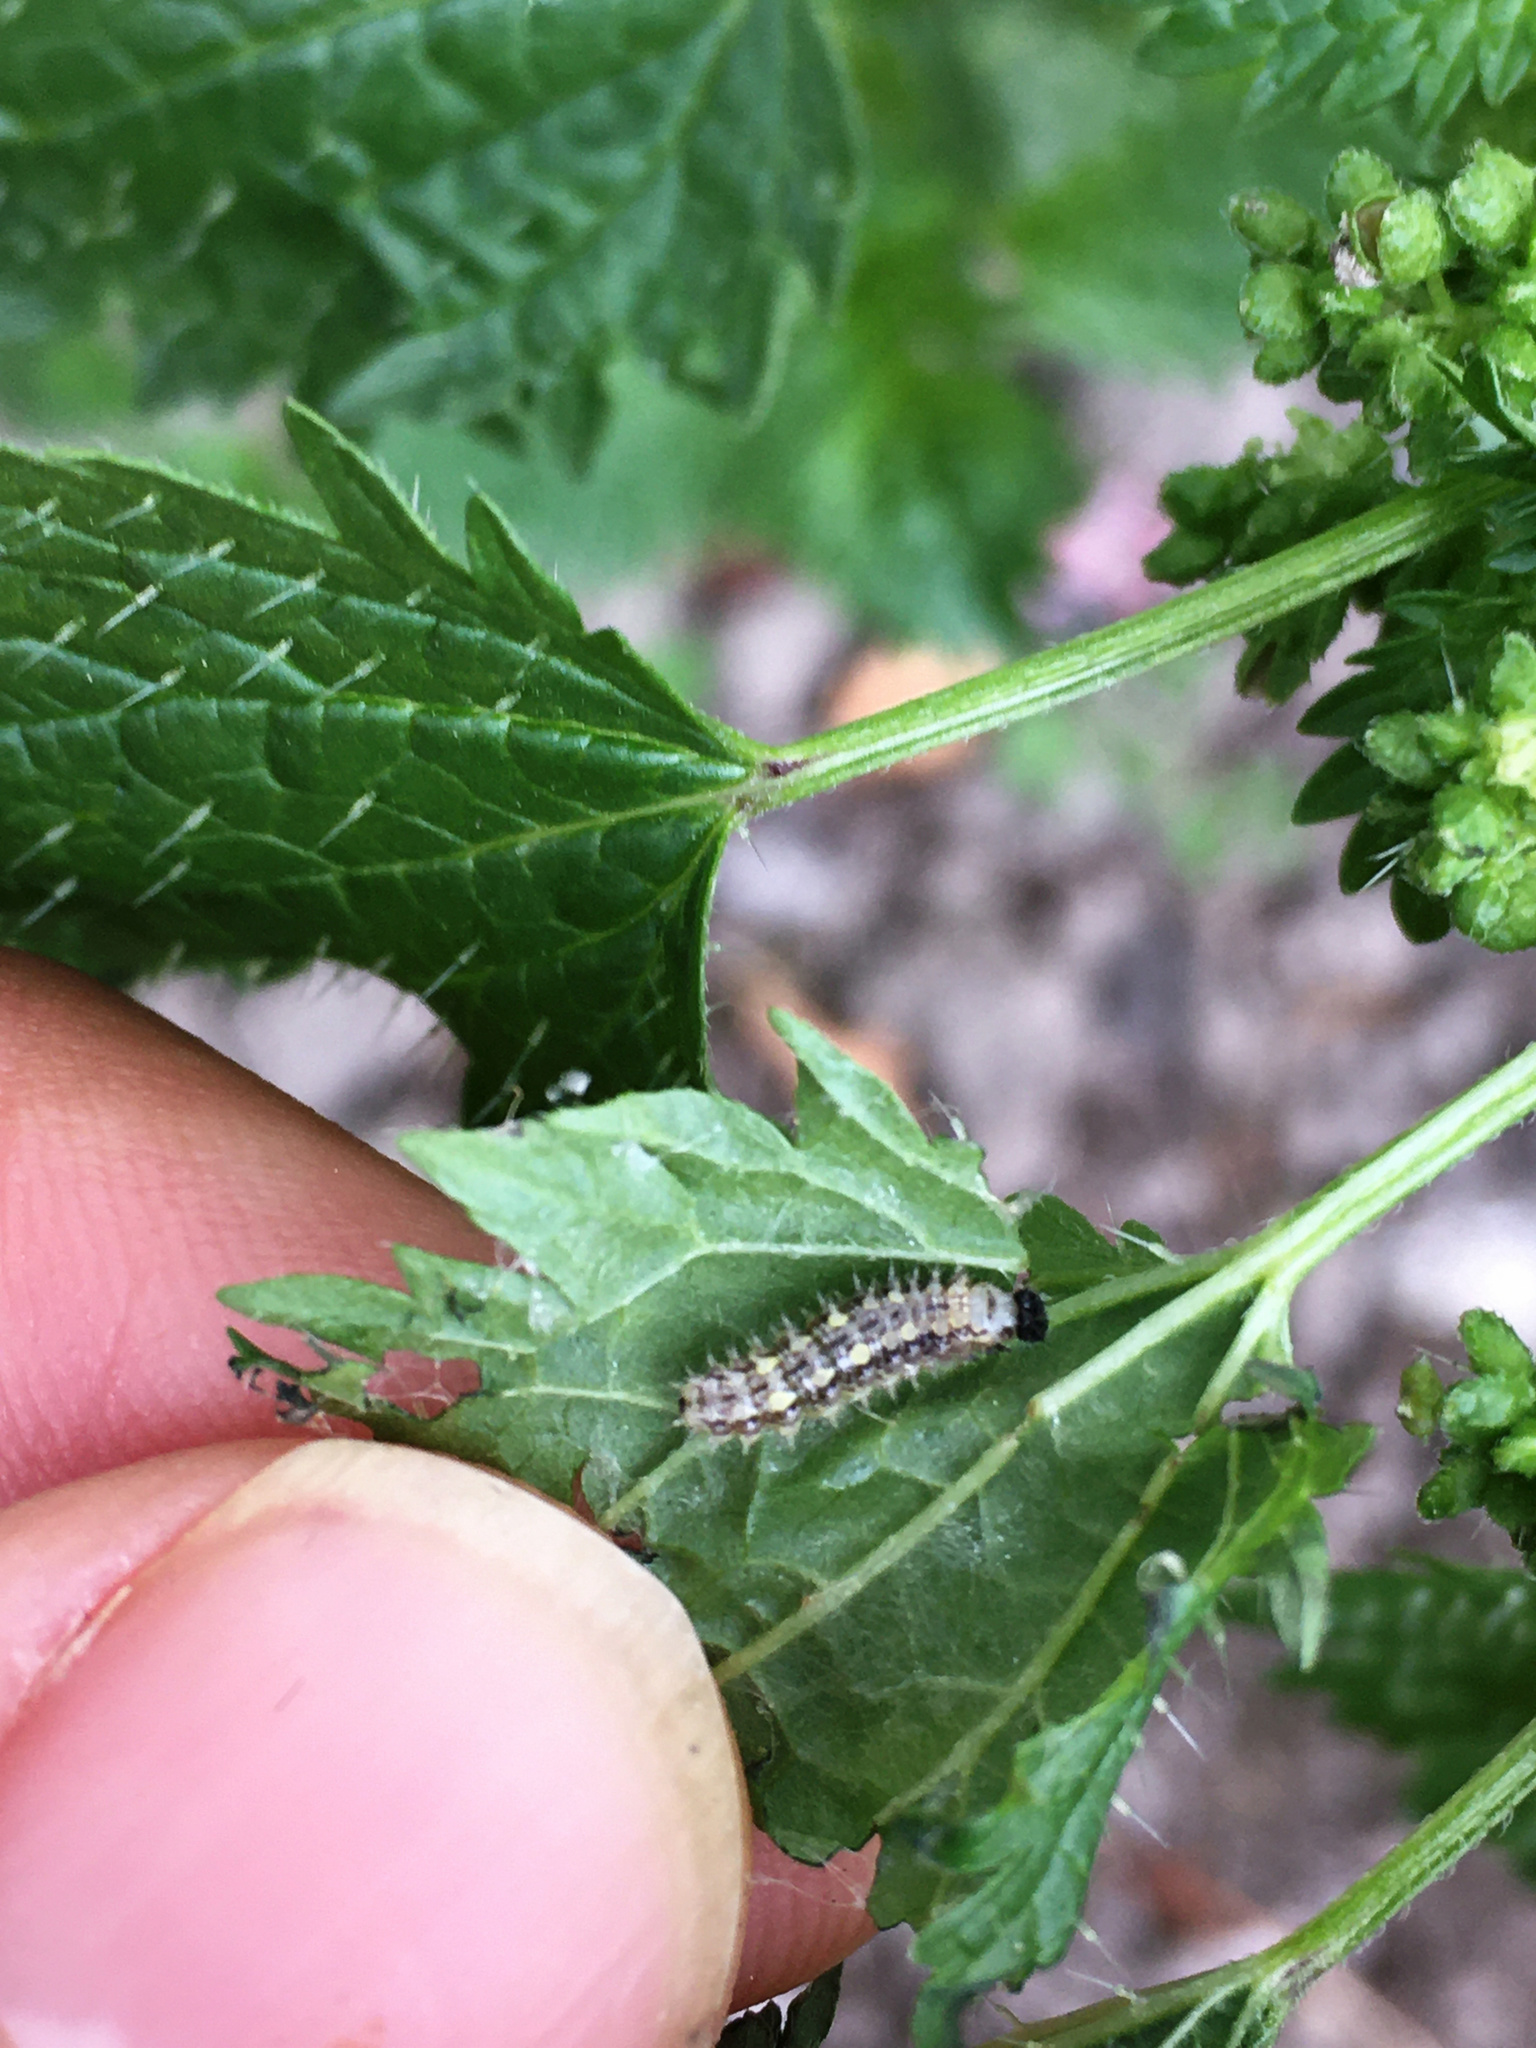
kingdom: Animalia
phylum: Arthropoda
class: Insecta
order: Lepidoptera
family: Nymphalidae
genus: Vanessa
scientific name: Vanessa itea
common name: Yellow admiral
